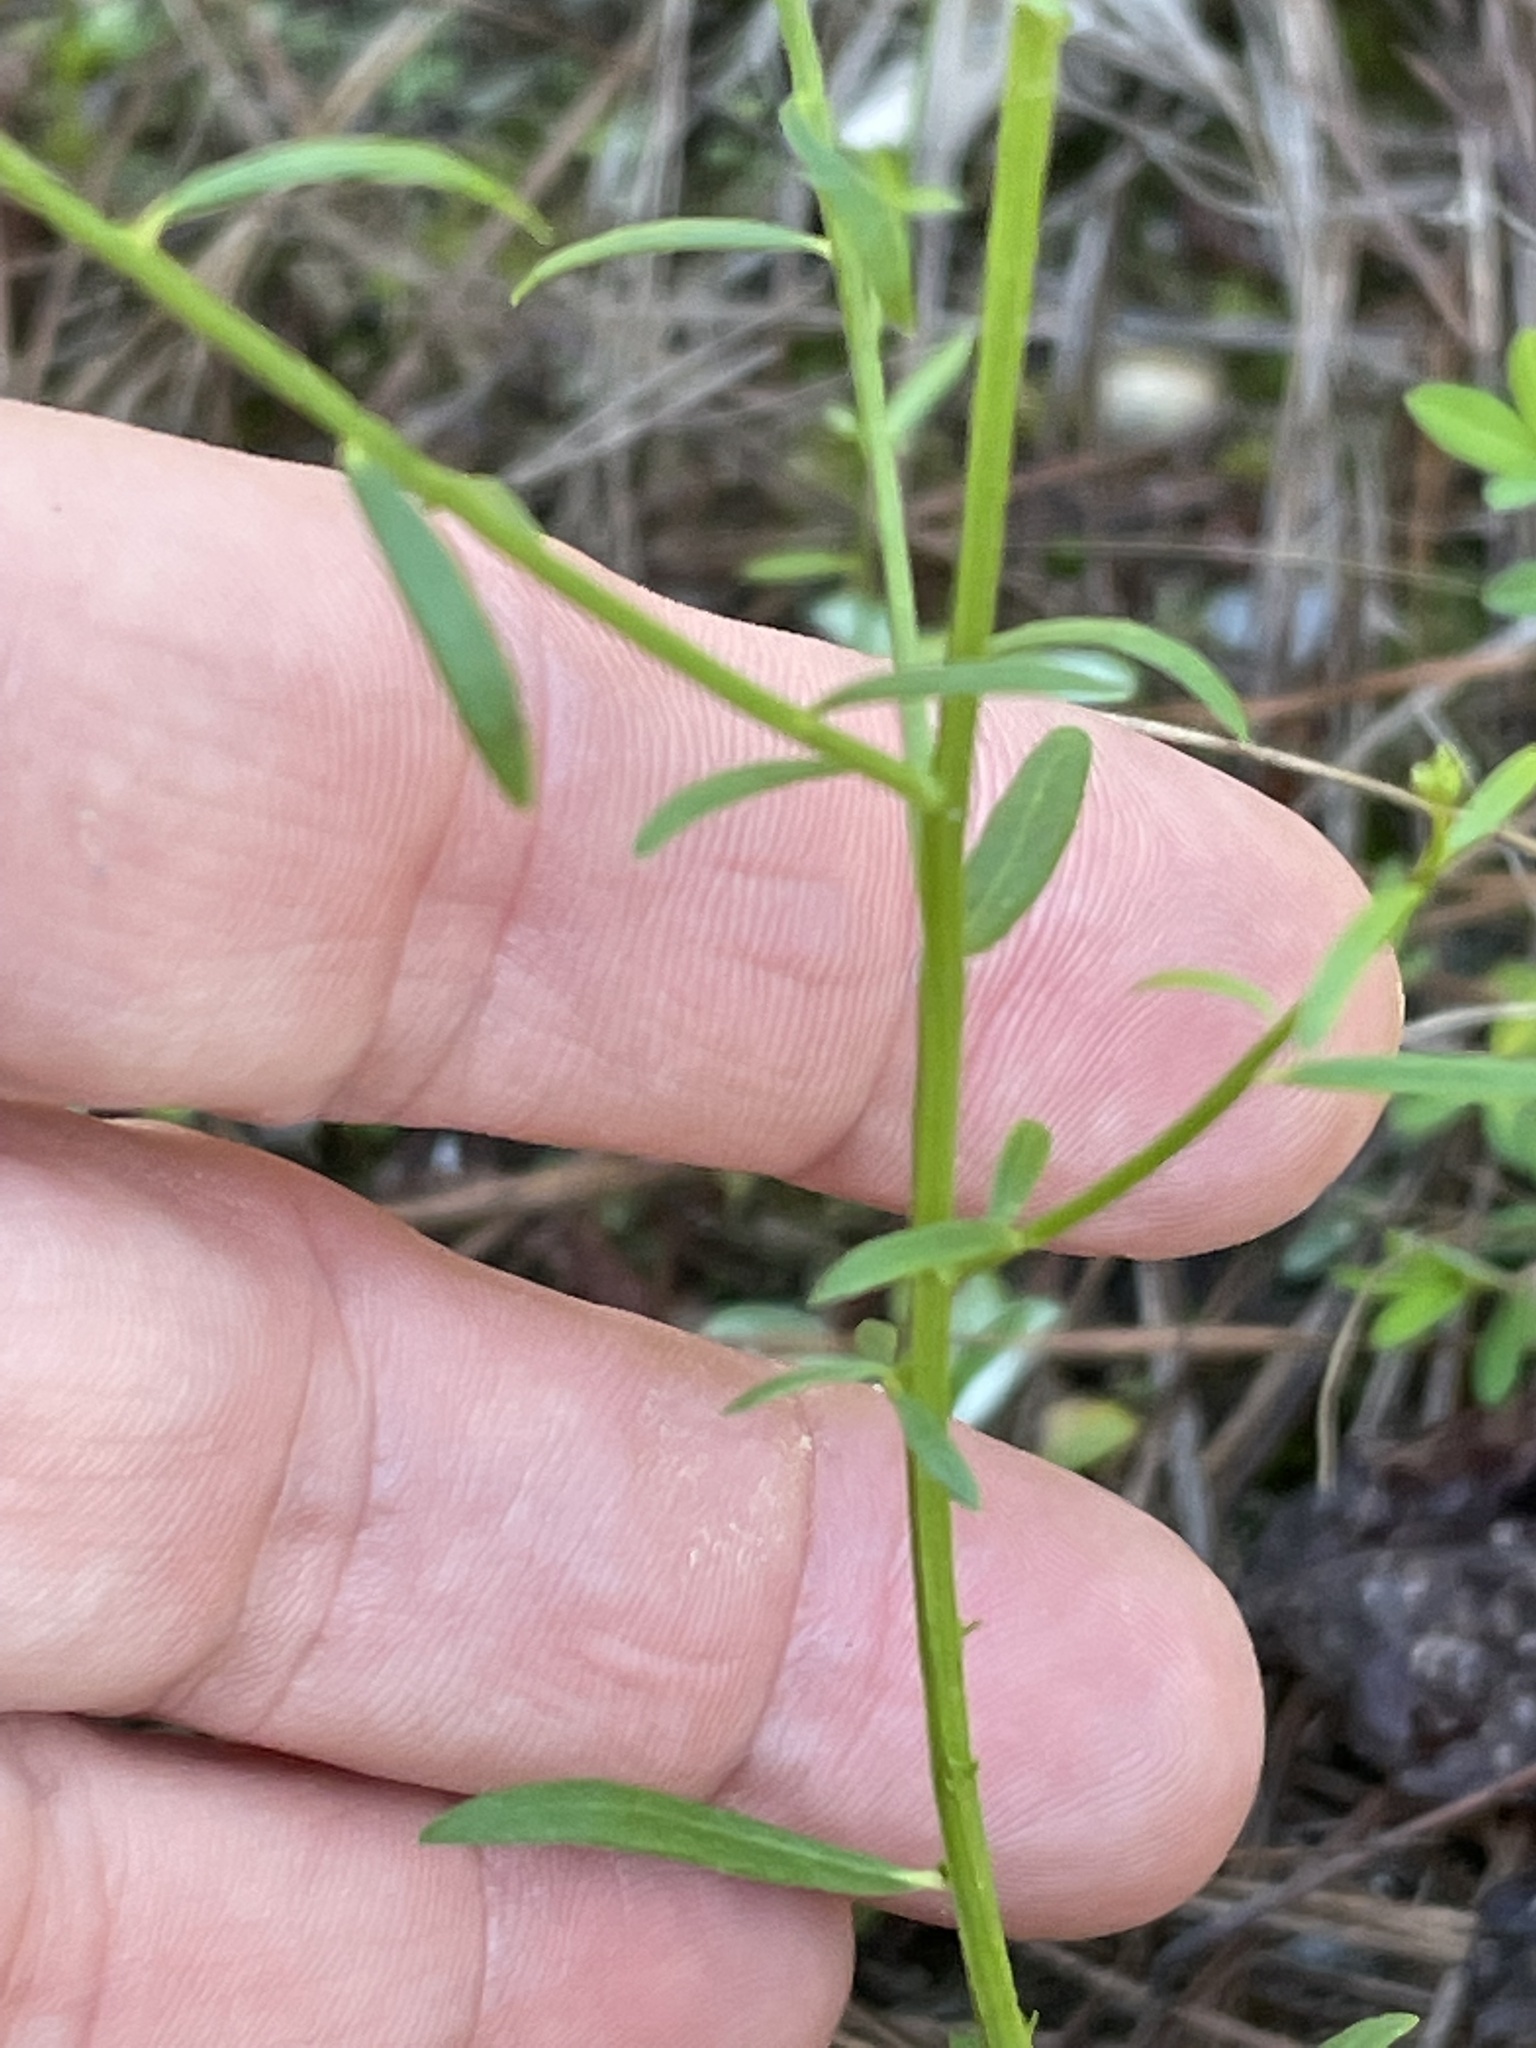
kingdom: Plantae
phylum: Tracheophyta
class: Magnoliopsida
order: Fabales
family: Polygalaceae
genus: Polygala
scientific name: Polygala curtissii
